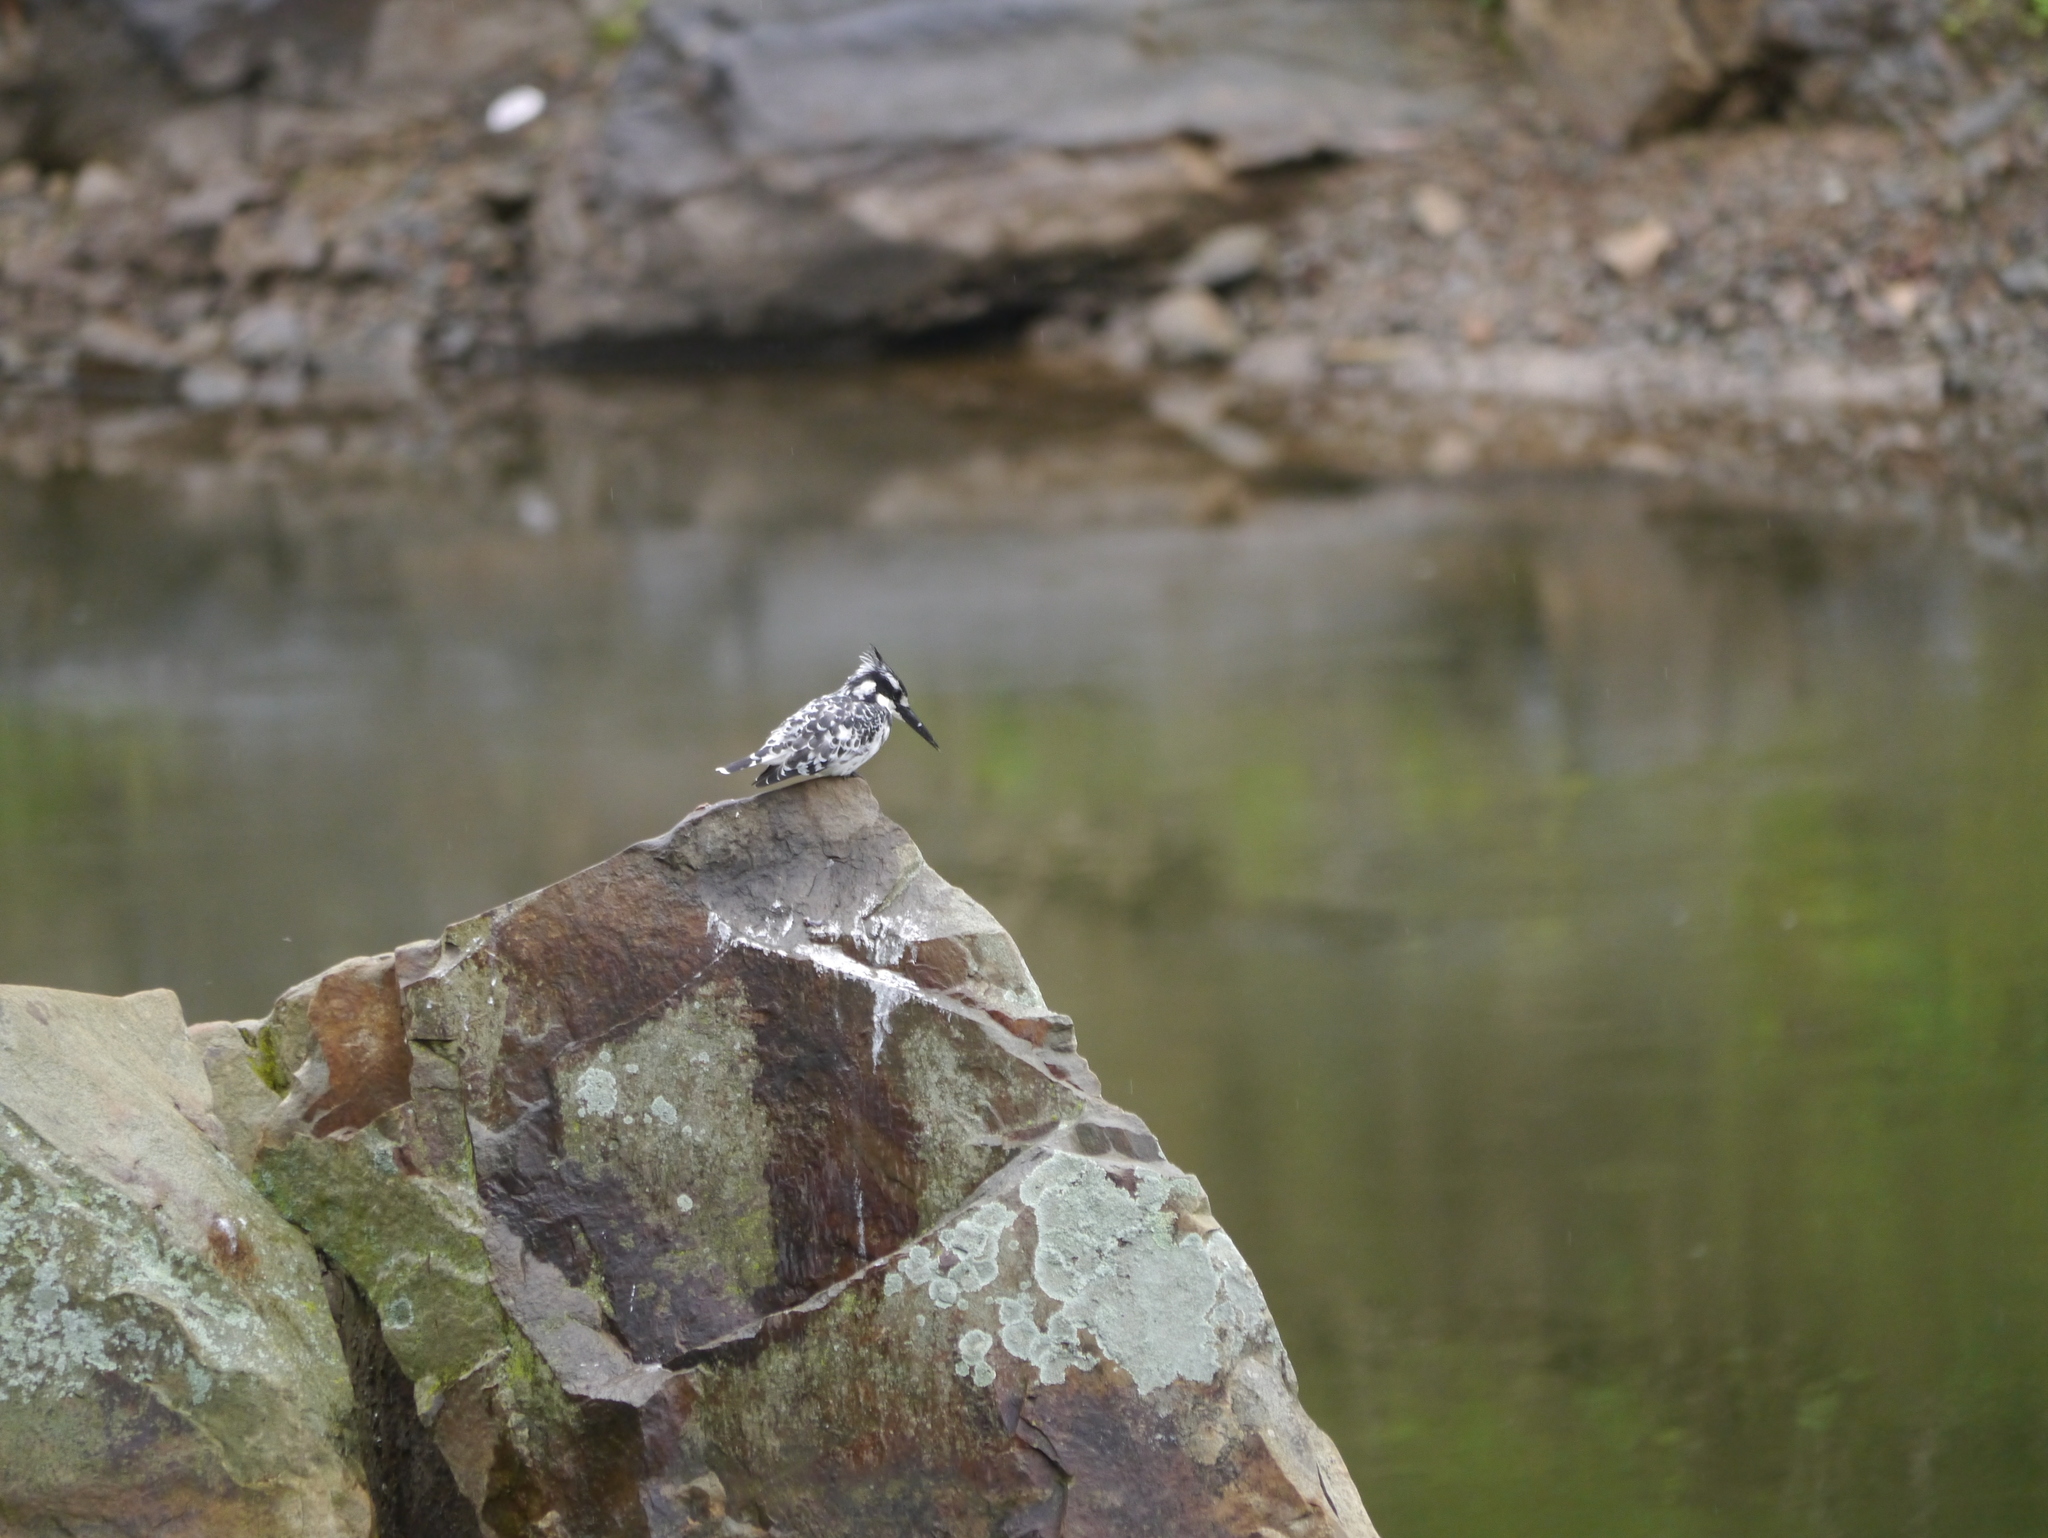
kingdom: Animalia
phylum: Chordata
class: Aves
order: Coraciiformes
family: Alcedinidae
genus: Ceryle
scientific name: Ceryle rudis
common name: Pied kingfisher
